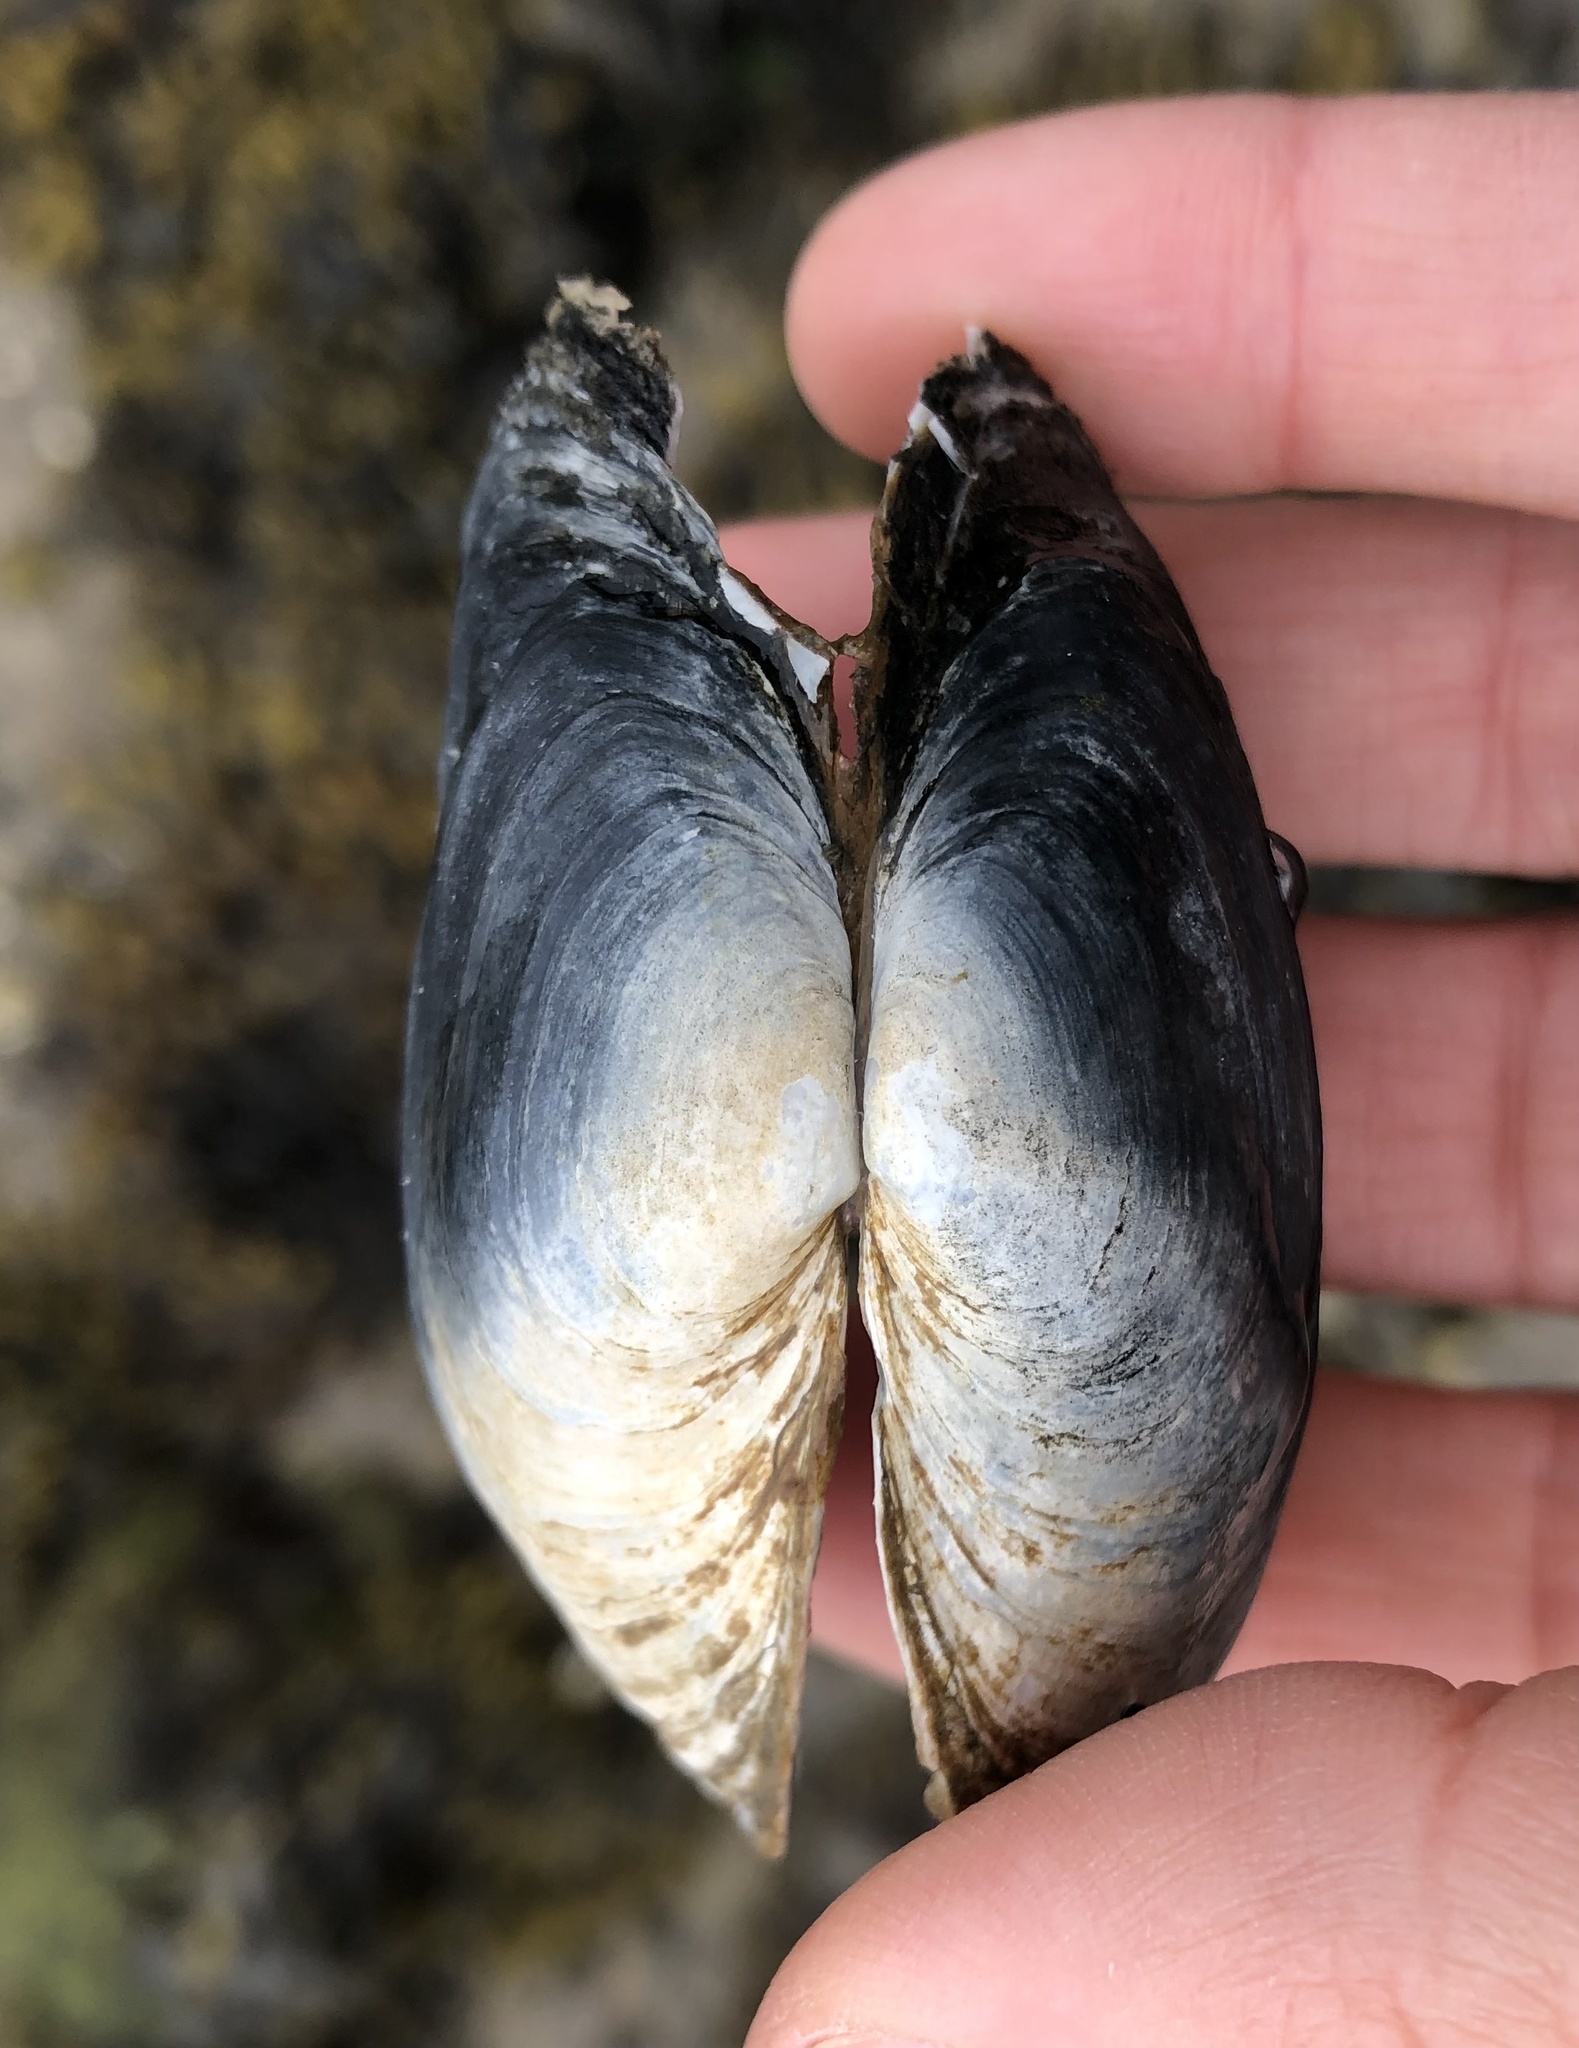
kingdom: Animalia
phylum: Mollusca
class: Bivalvia
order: Myida
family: Myidae
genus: Mya
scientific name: Mya arenaria
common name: Soft-shelled clam
